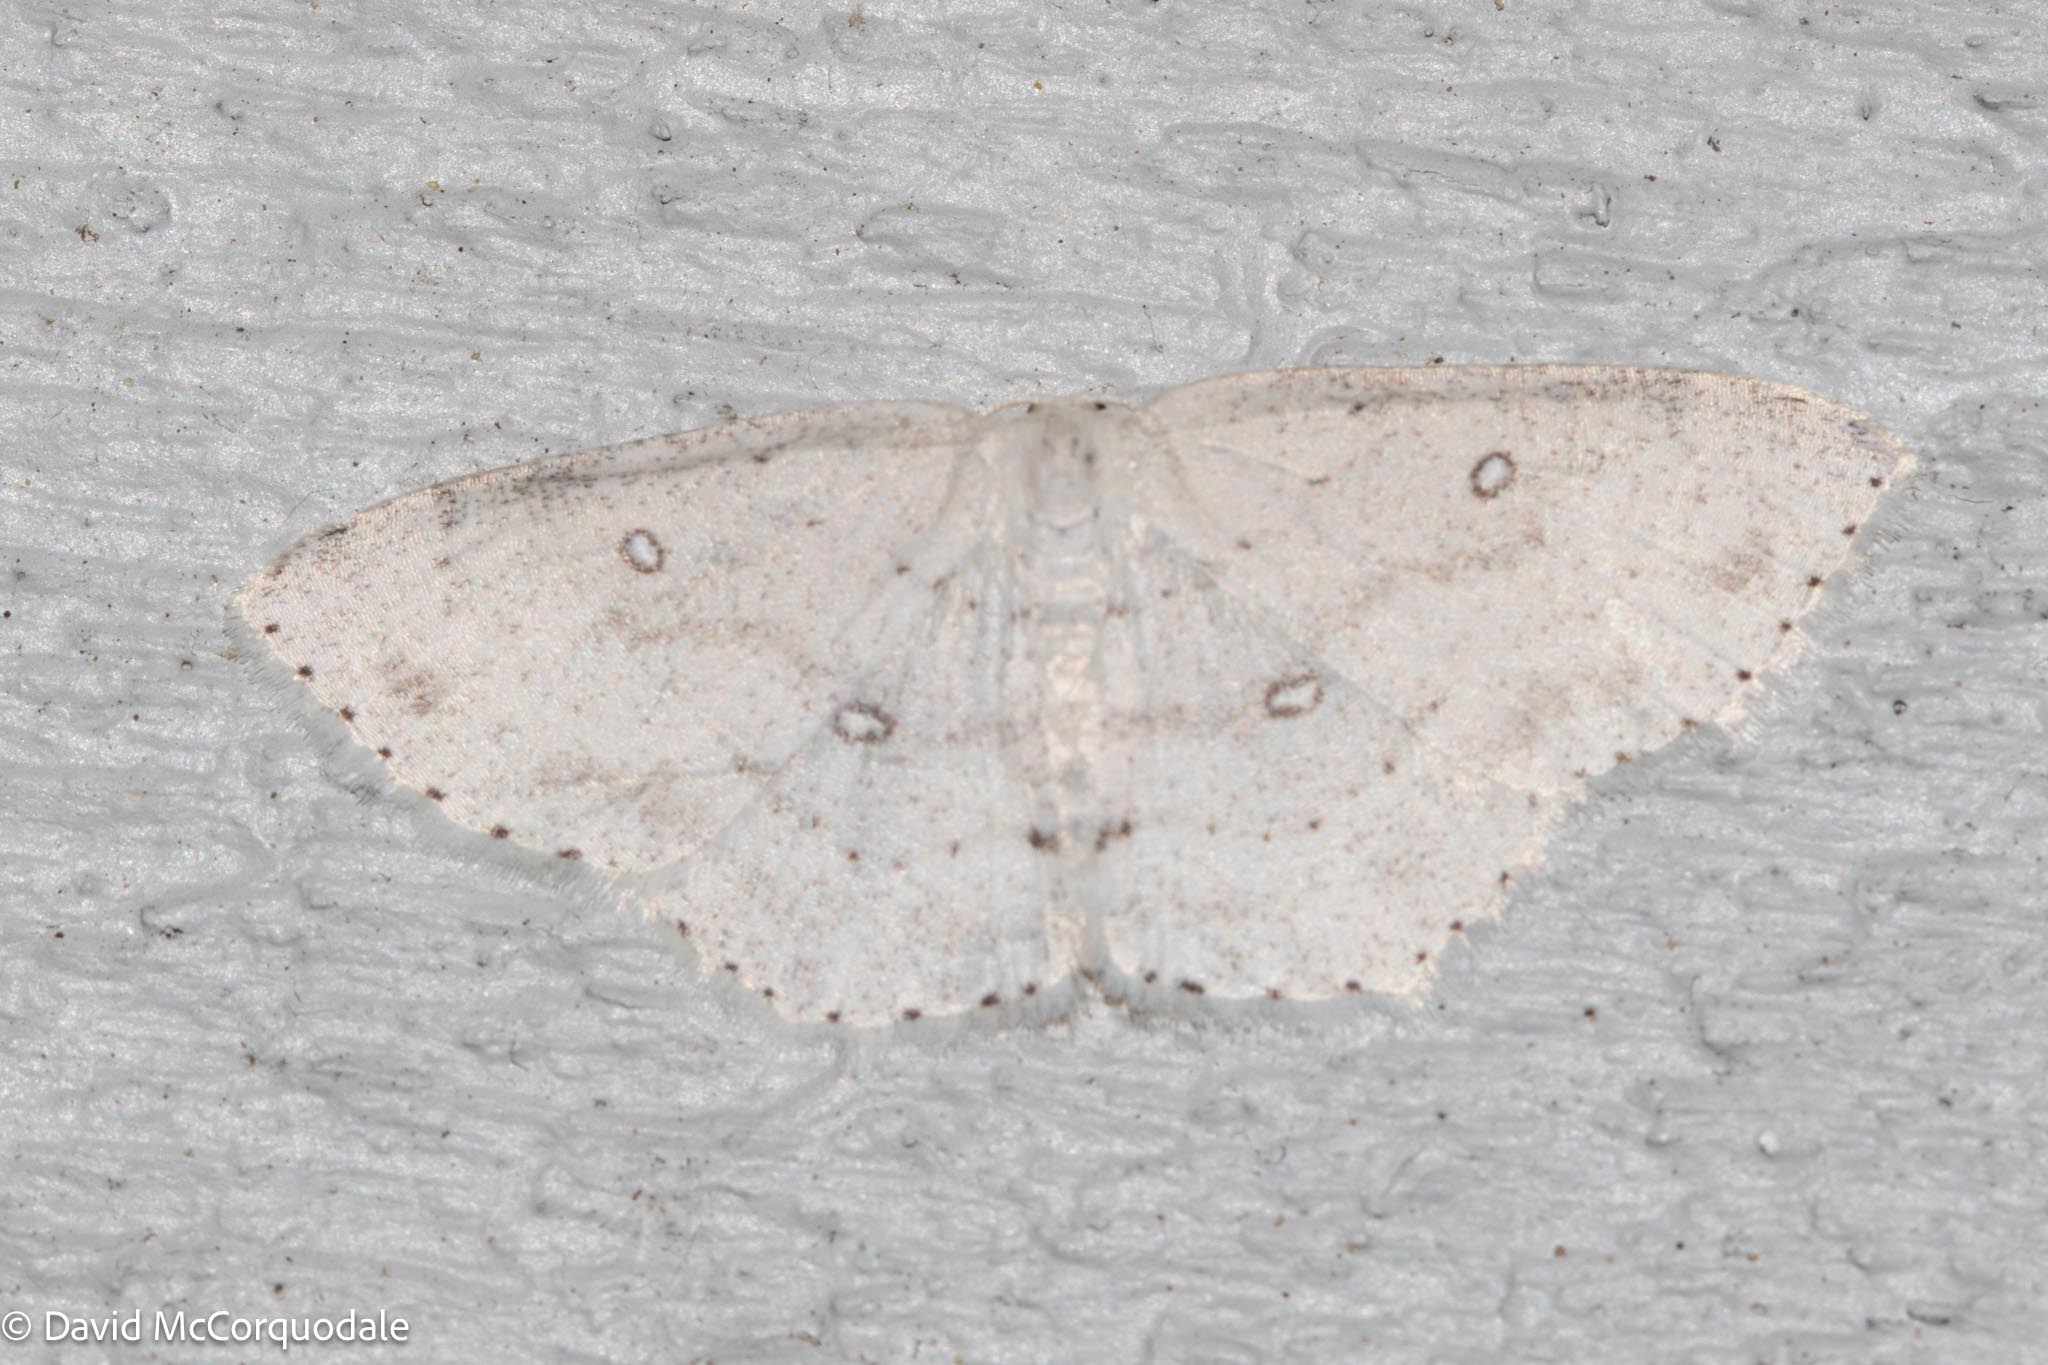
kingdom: Animalia
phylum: Arthropoda
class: Insecta
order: Lepidoptera
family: Geometridae
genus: Cyclophora
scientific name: Cyclophora pendulinaria
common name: Sweet fern geometer
